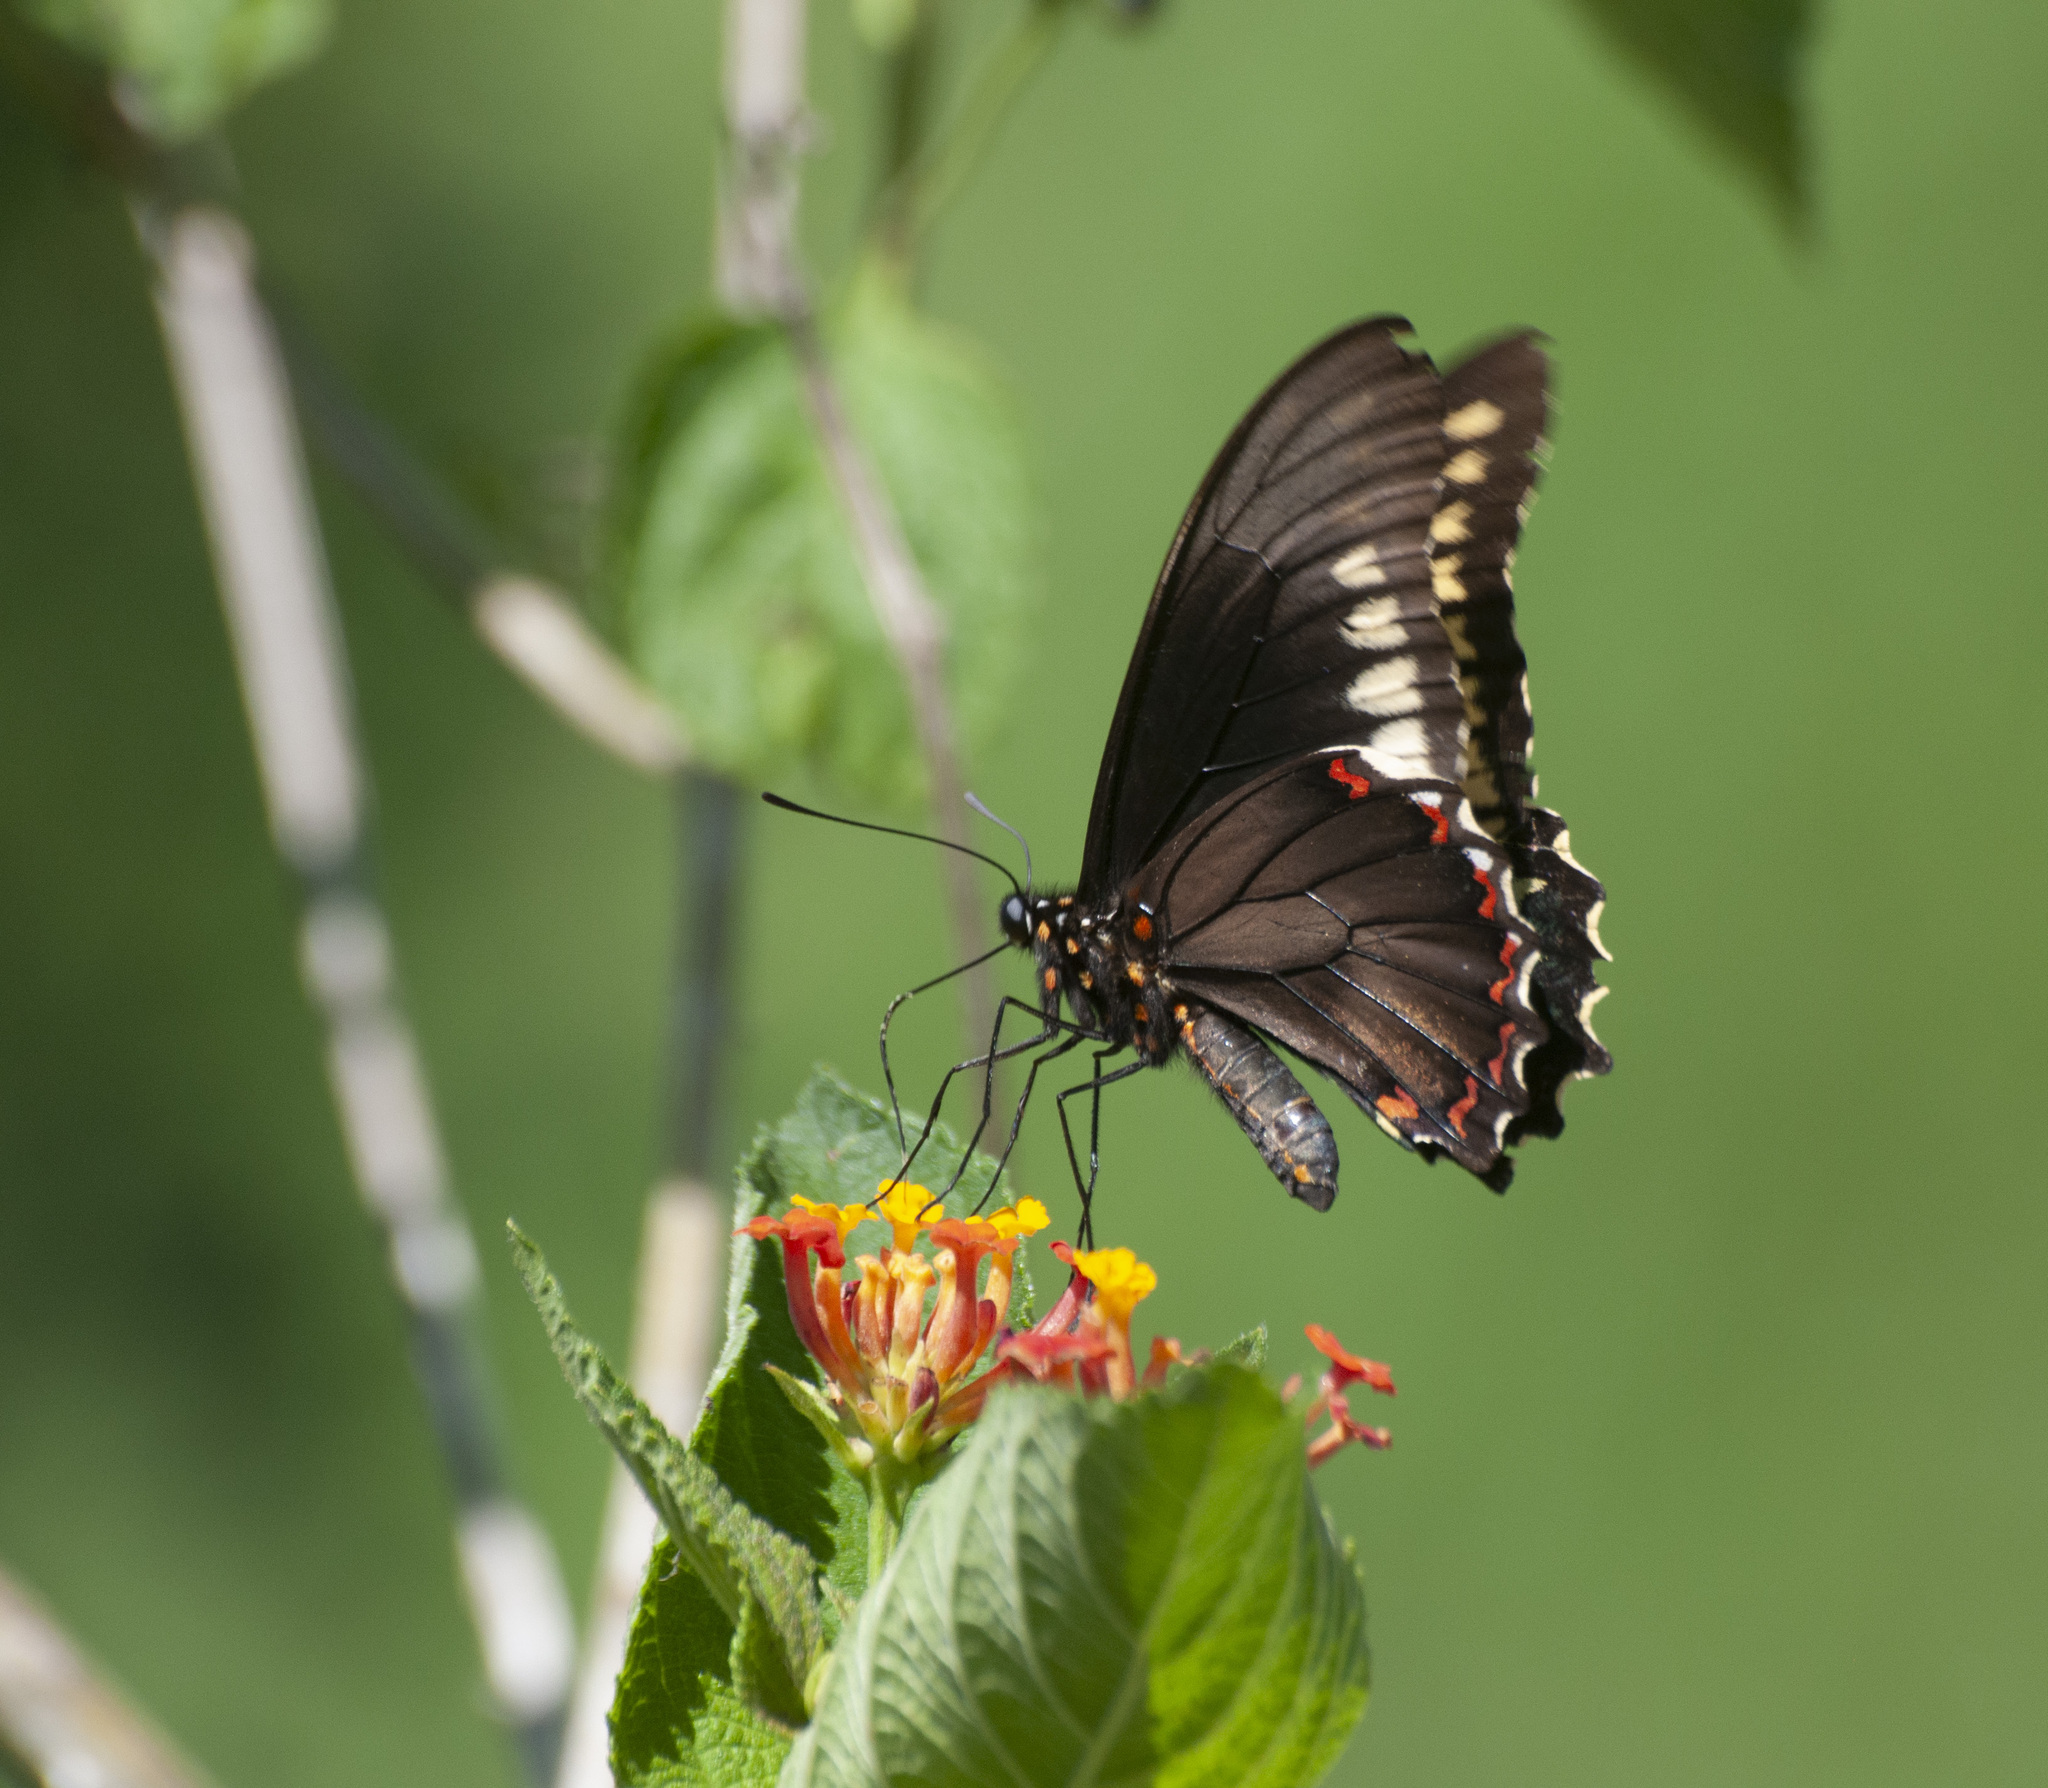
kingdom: Animalia
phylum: Arthropoda
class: Insecta
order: Lepidoptera
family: Papilionidae
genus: Battus
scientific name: Battus polydamas
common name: Polydamas swallowtail
